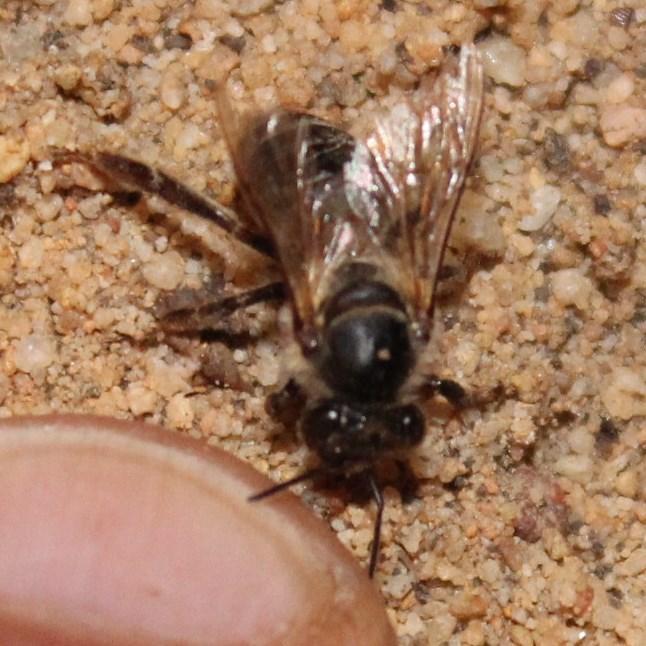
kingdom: Animalia
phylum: Arthropoda
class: Insecta
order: Hymenoptera
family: Apidae
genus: Apis
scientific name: Apis mellifera
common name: Honey bee
